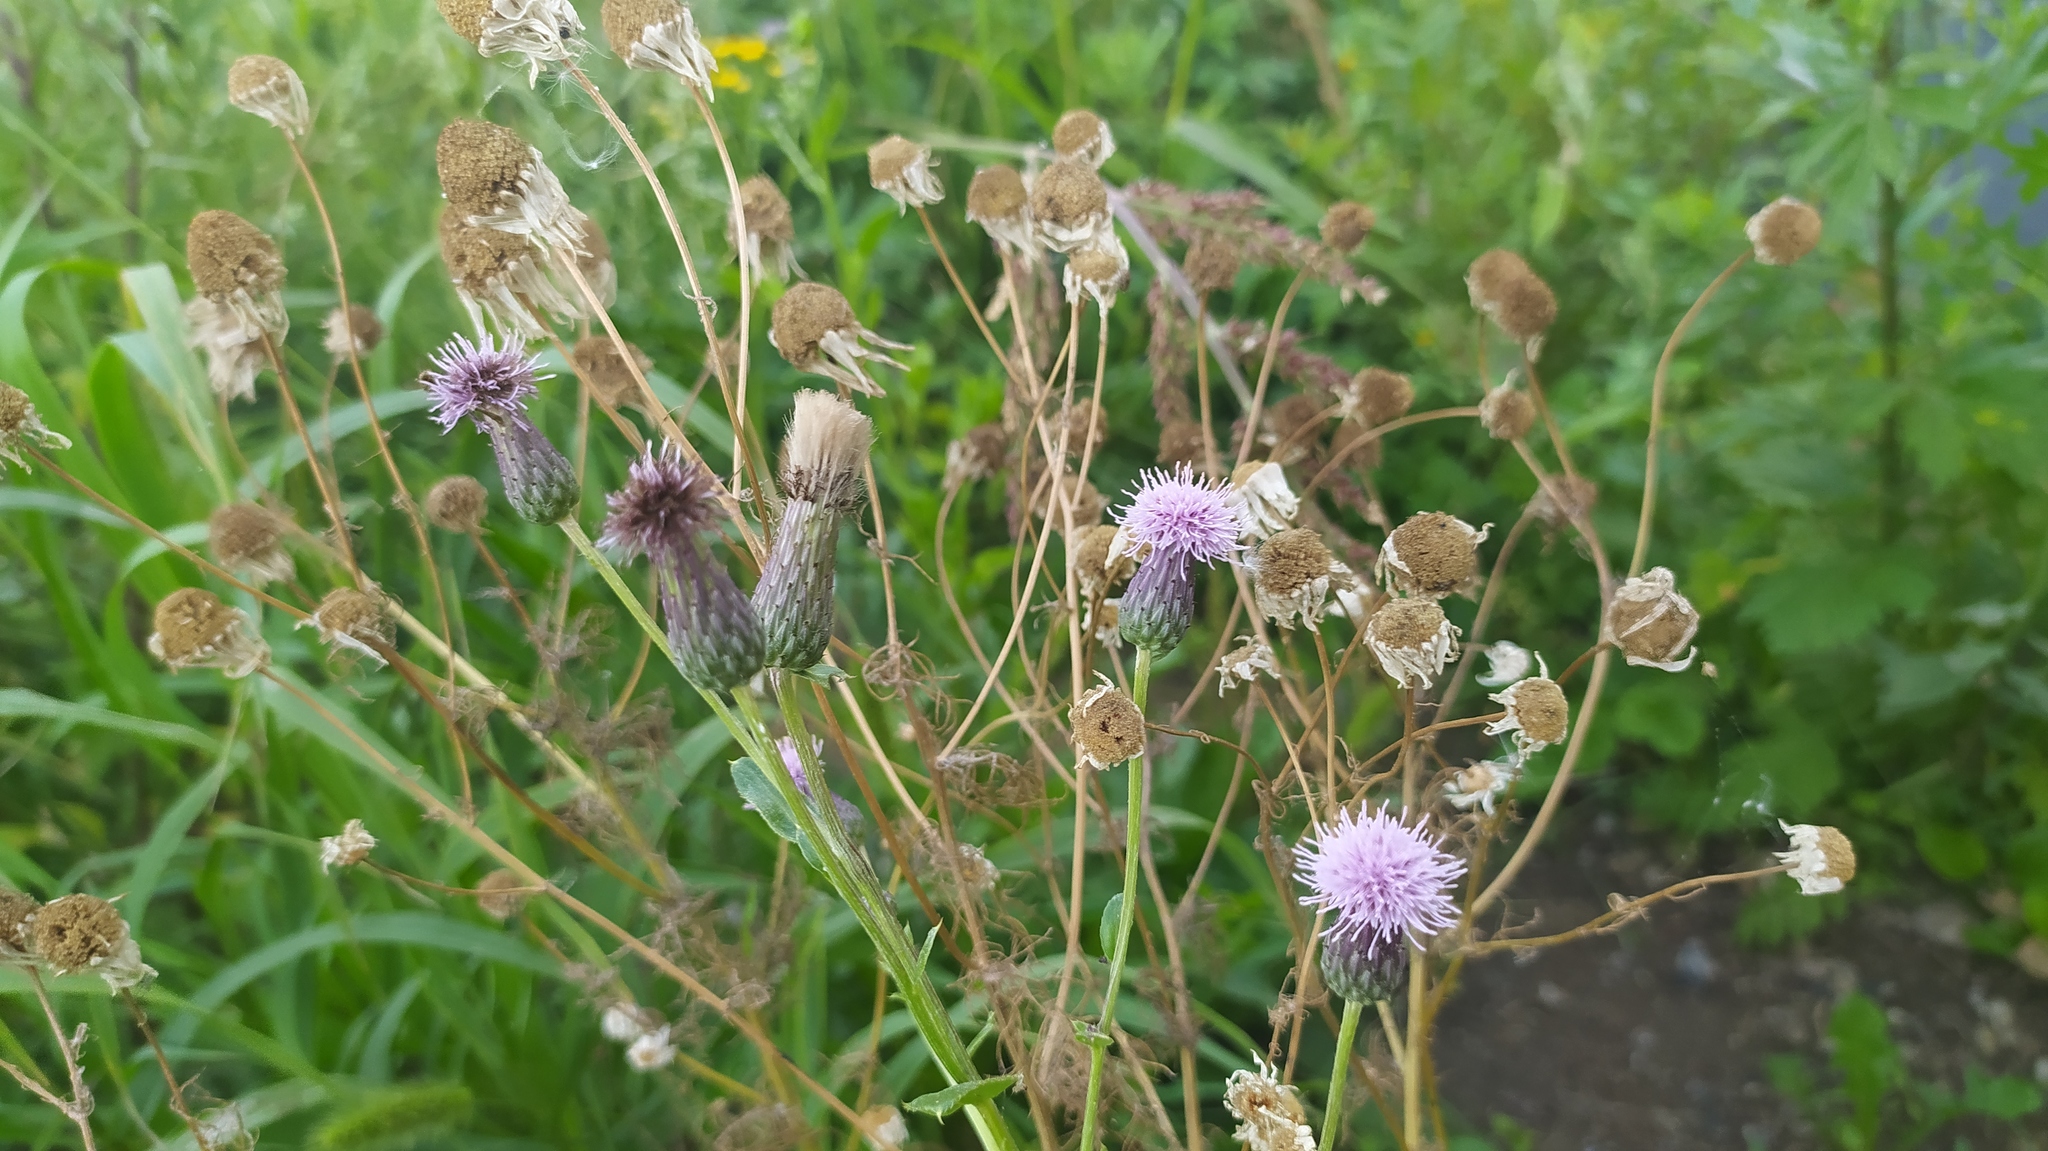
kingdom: Plantae
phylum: Tracheophyta
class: Magnoliopsida
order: Asterales
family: Asteraceae
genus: Cirsium
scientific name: Cirsium arvense
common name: Creeping thistle
